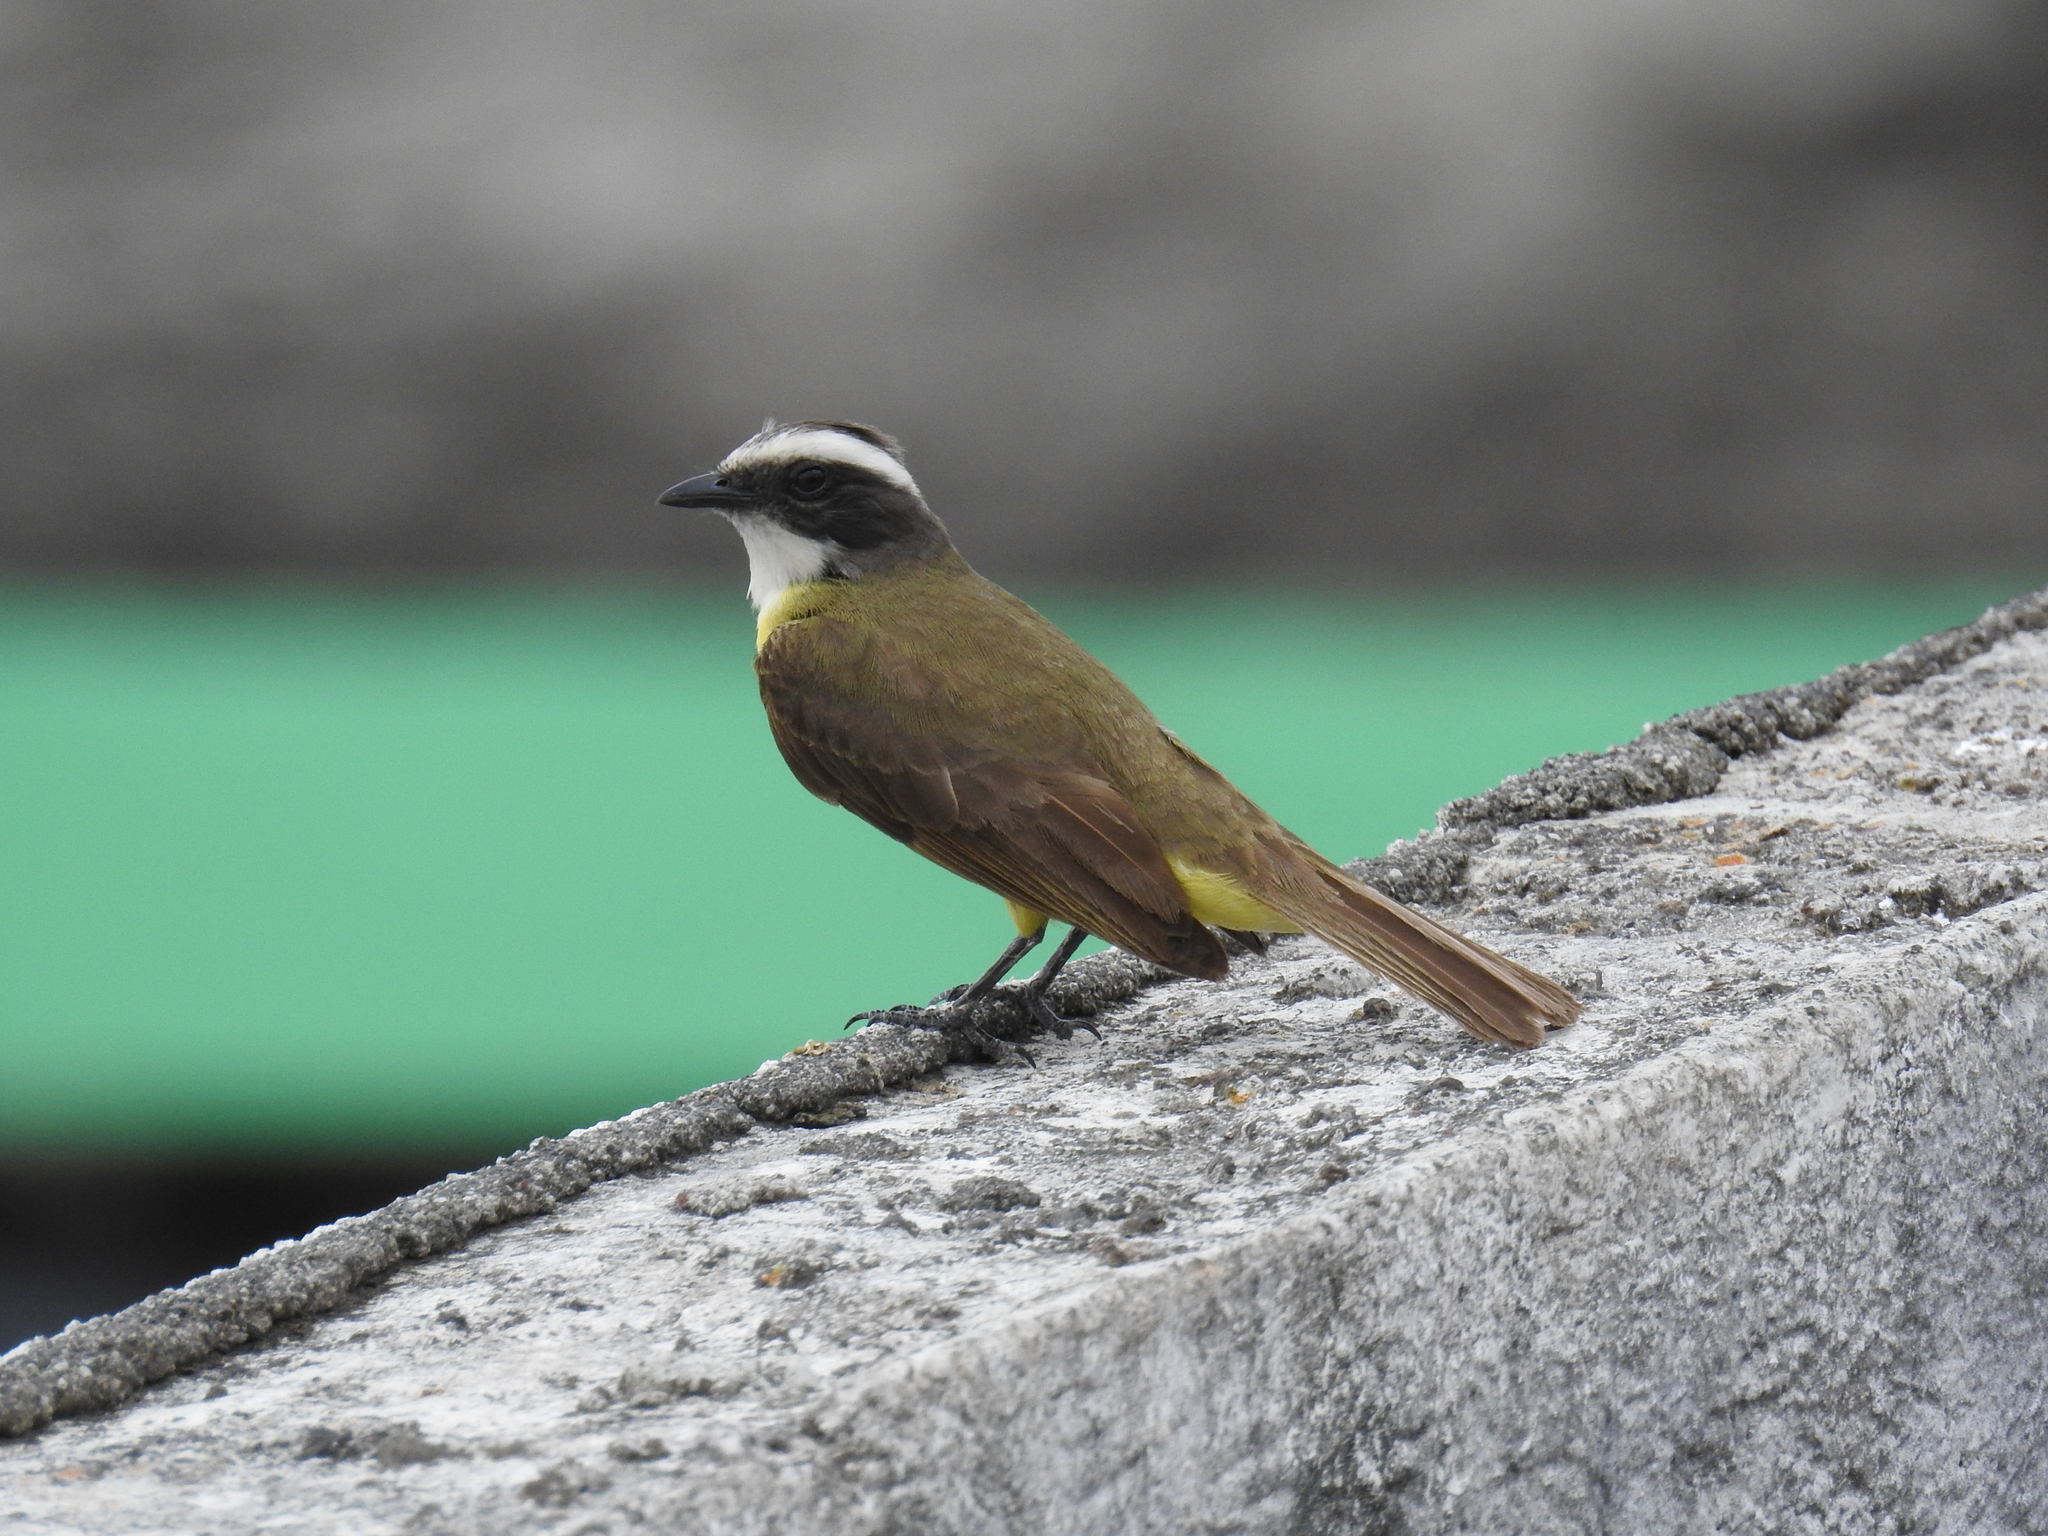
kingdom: Animalia
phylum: Chordata
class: Aves
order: Passeriformes
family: Tyrannidae
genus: Myiozetetes
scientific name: Myiozetetes similis
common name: Social flycatcher
